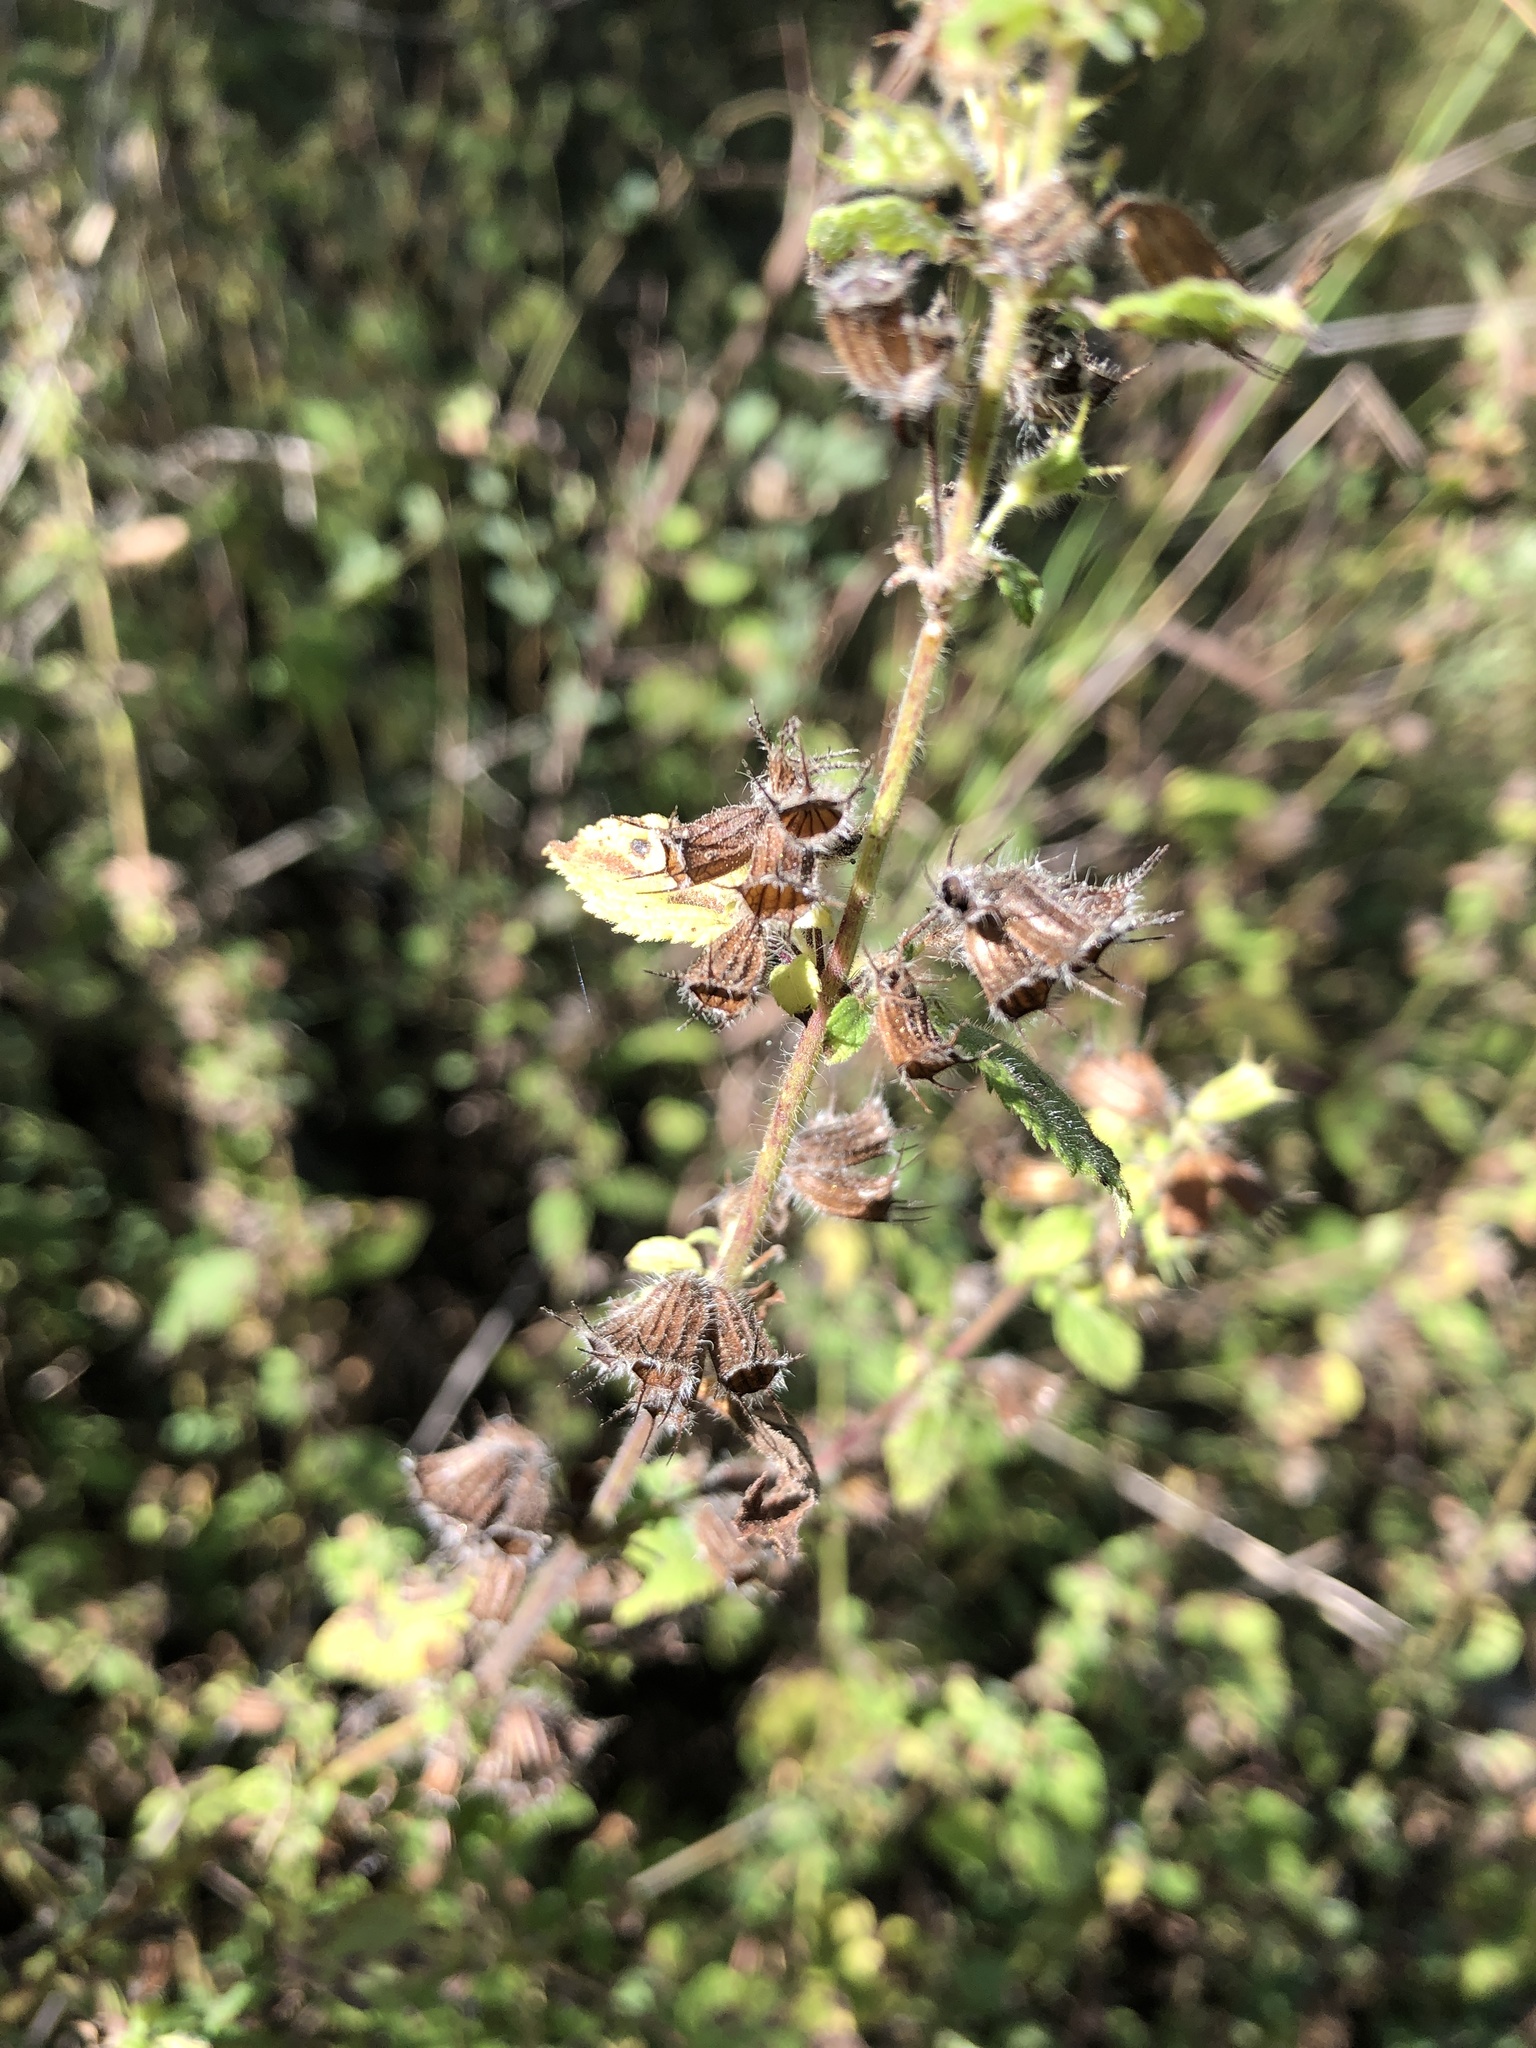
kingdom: Plantae
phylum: Tracheophyta
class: Magnoliopsida
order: Lamiales
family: Lamiaceae
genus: Mesosphaerum
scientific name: Mesosphaerum suaveolens
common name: Pignut
